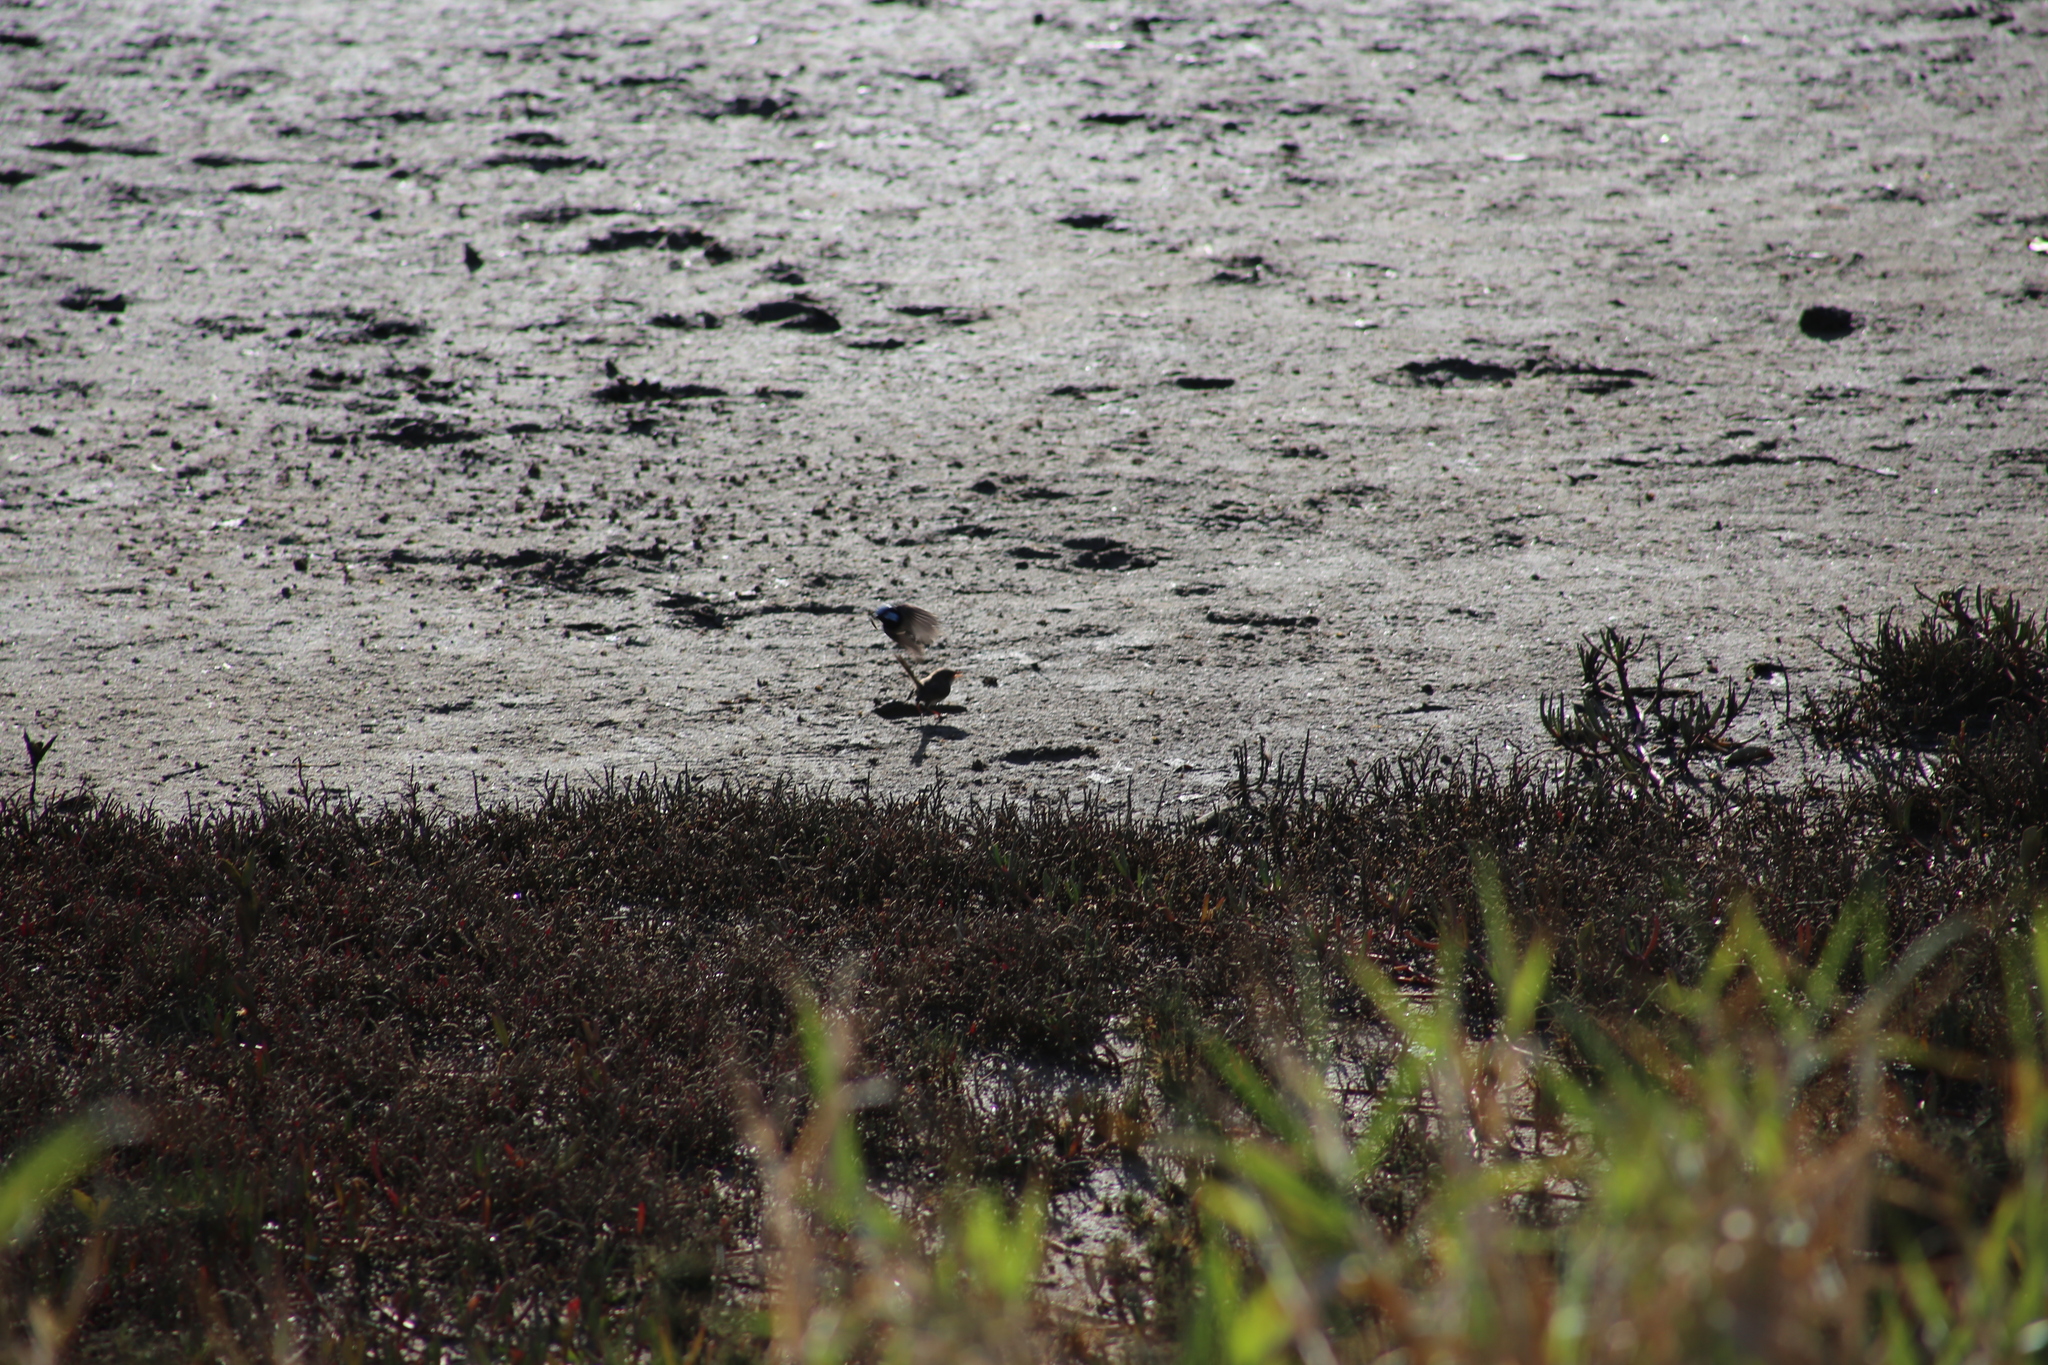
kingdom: Animalia
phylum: Chordata
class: Aves
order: Passeriformes
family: Maluridae
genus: Malurus
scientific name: Malurus cyaneus
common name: Superb fairywren
